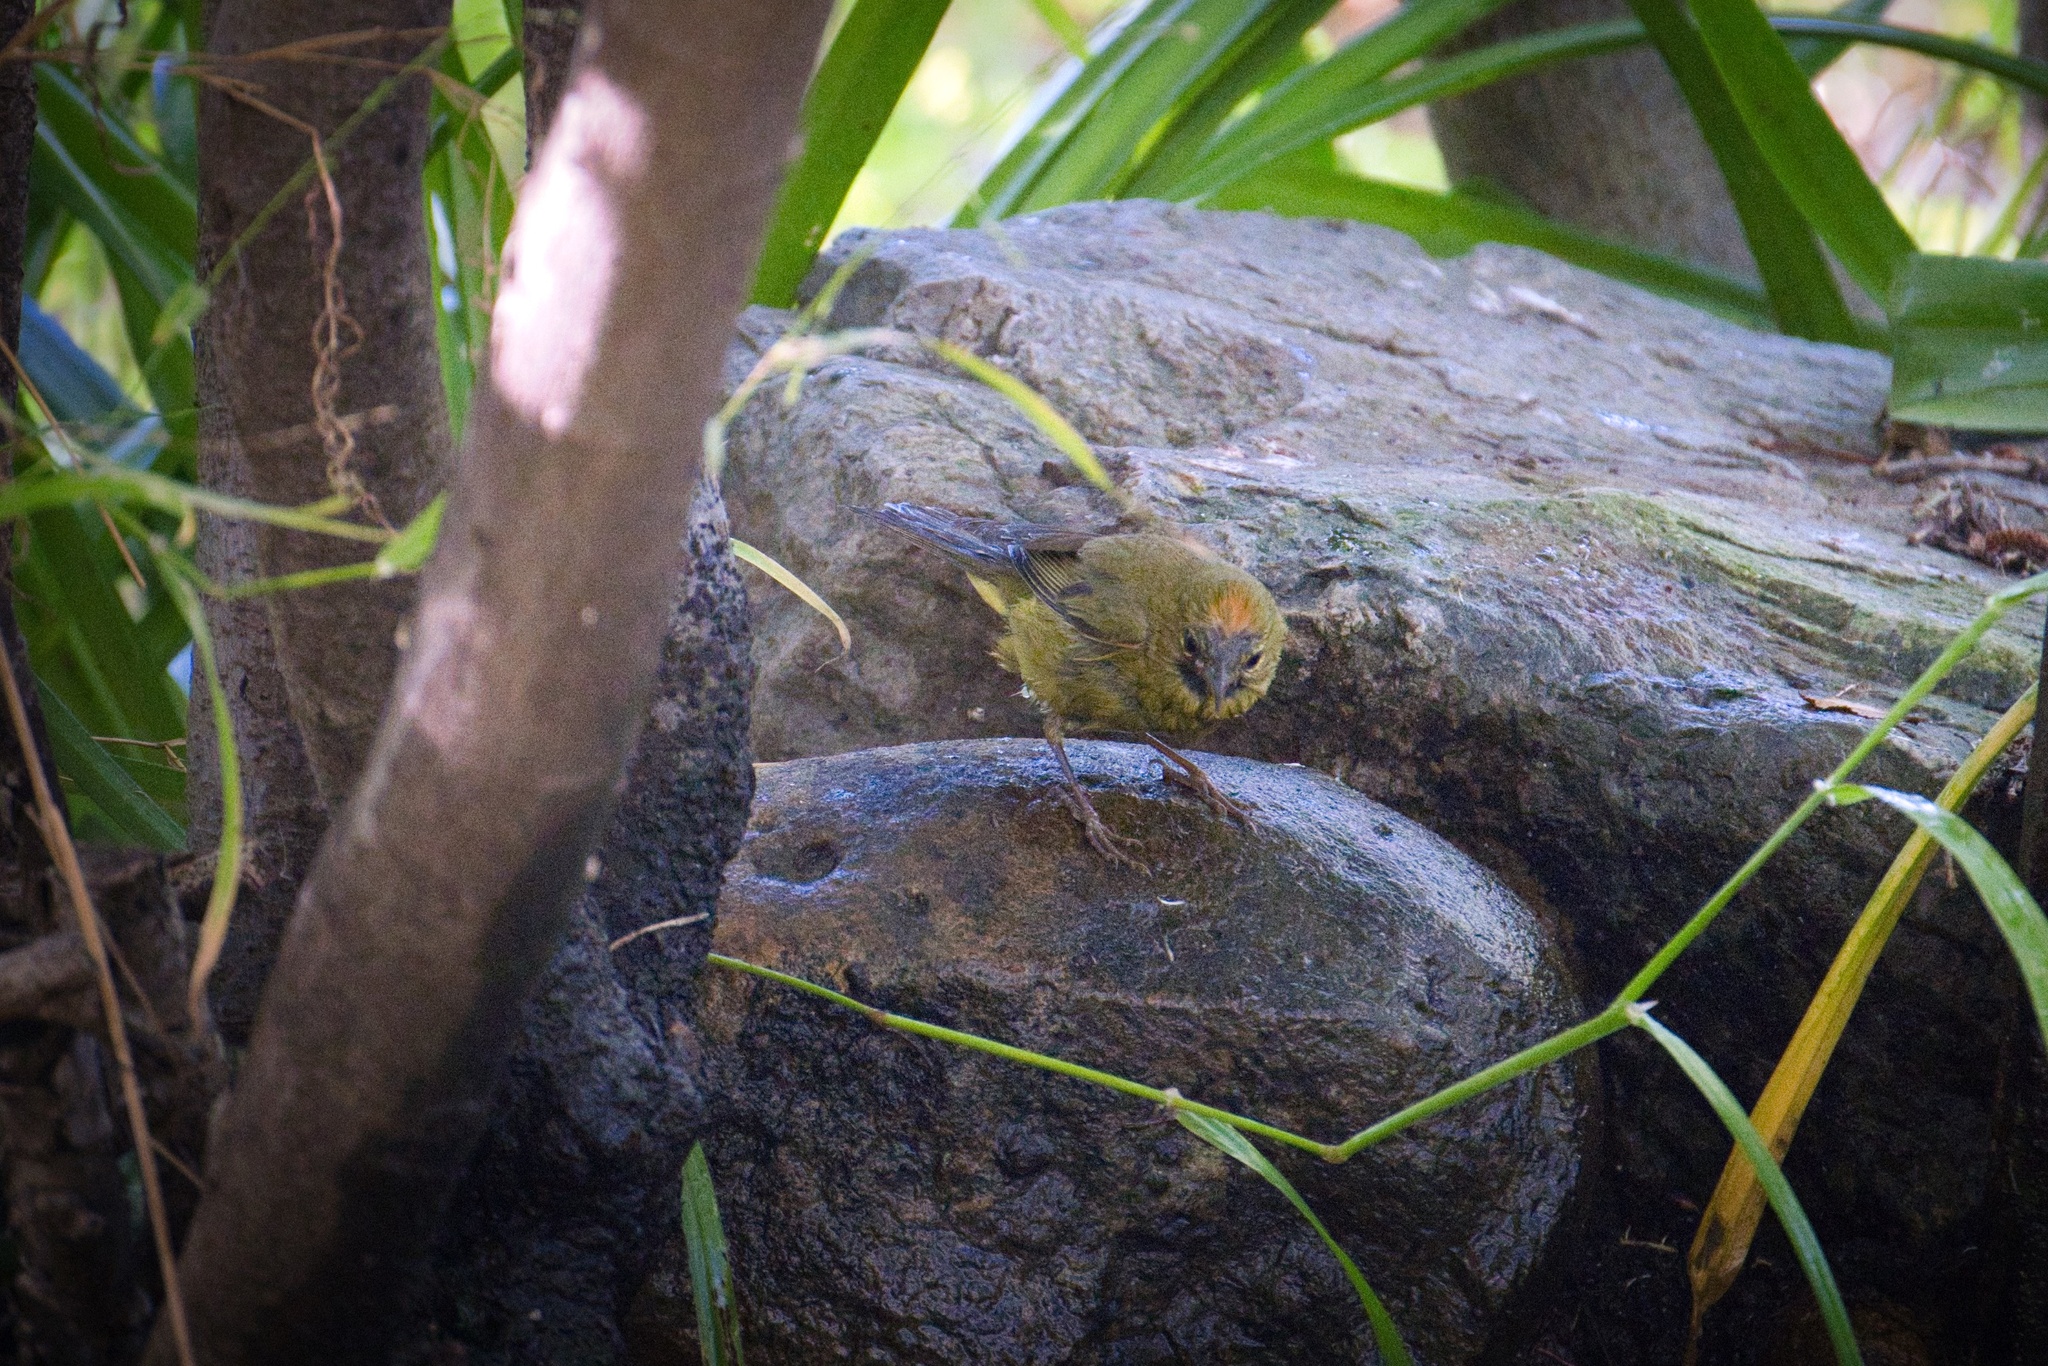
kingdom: Animalia
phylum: Chordata
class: Aves
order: Passeriformes
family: Parulidae
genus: Leiothlypis
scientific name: Leiothlypis celata
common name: Orange-crowned warbler
